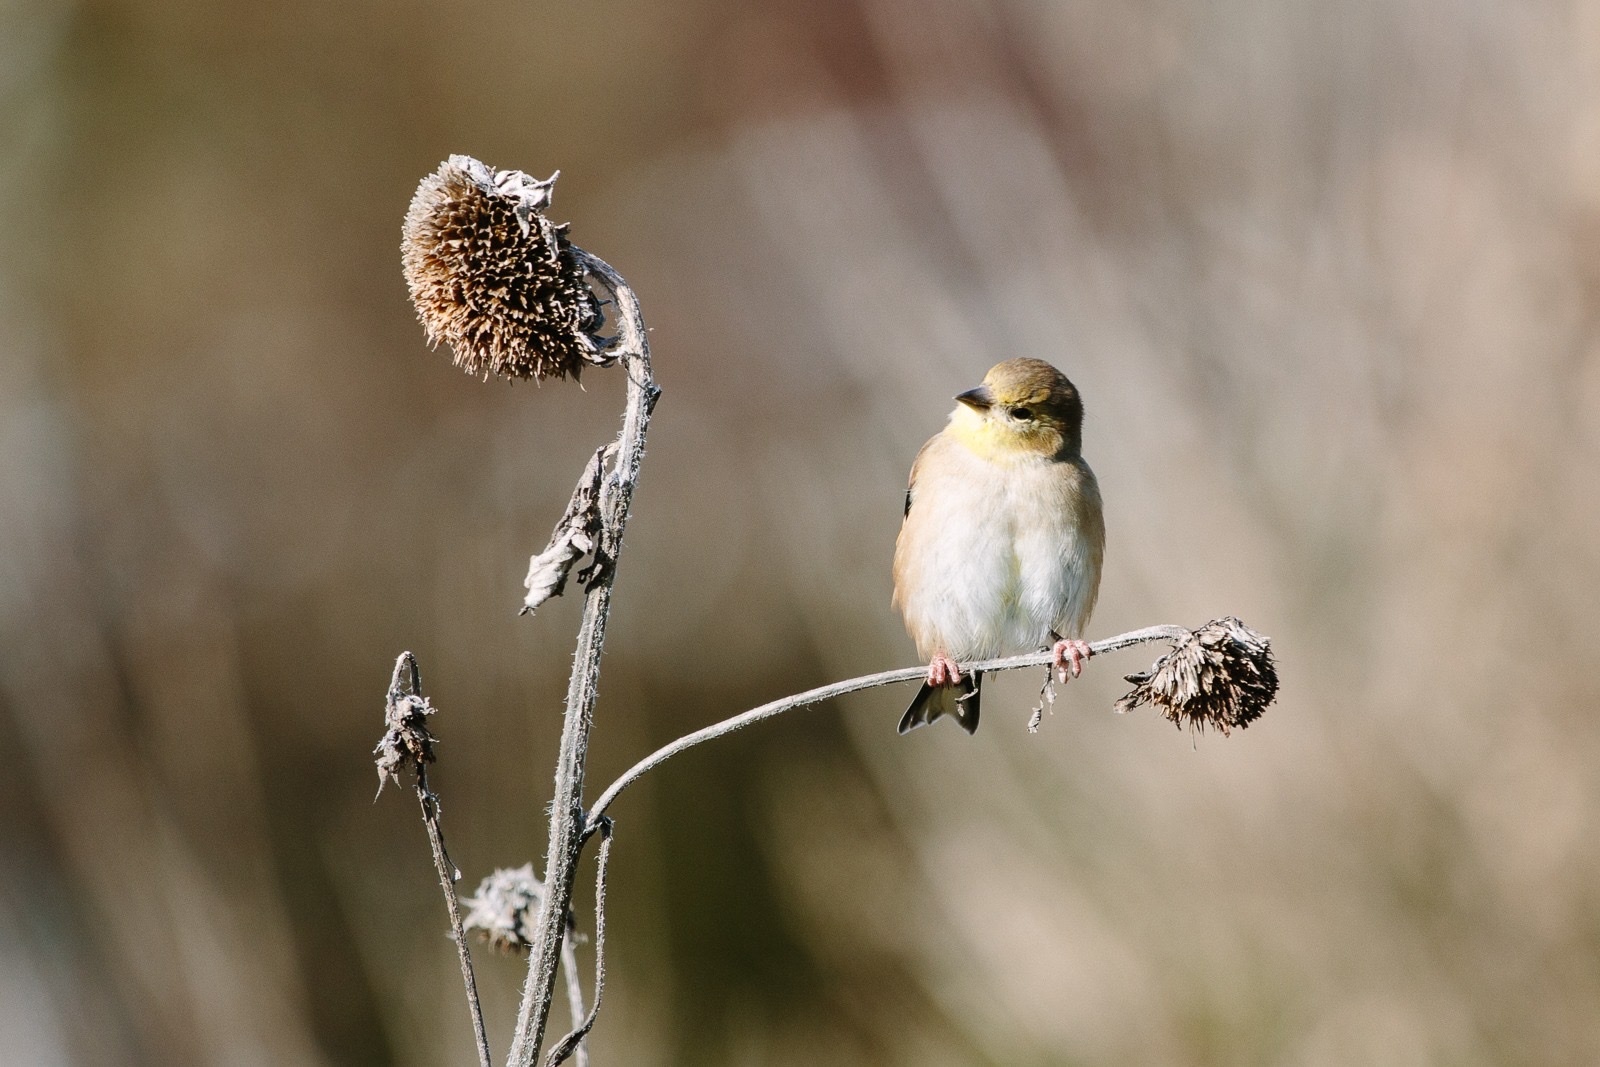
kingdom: Animalia
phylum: Chordata
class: Aves
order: Passeriformes
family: Fringillidae
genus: Spinus
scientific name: Spinus tristis
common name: American goldfinch
